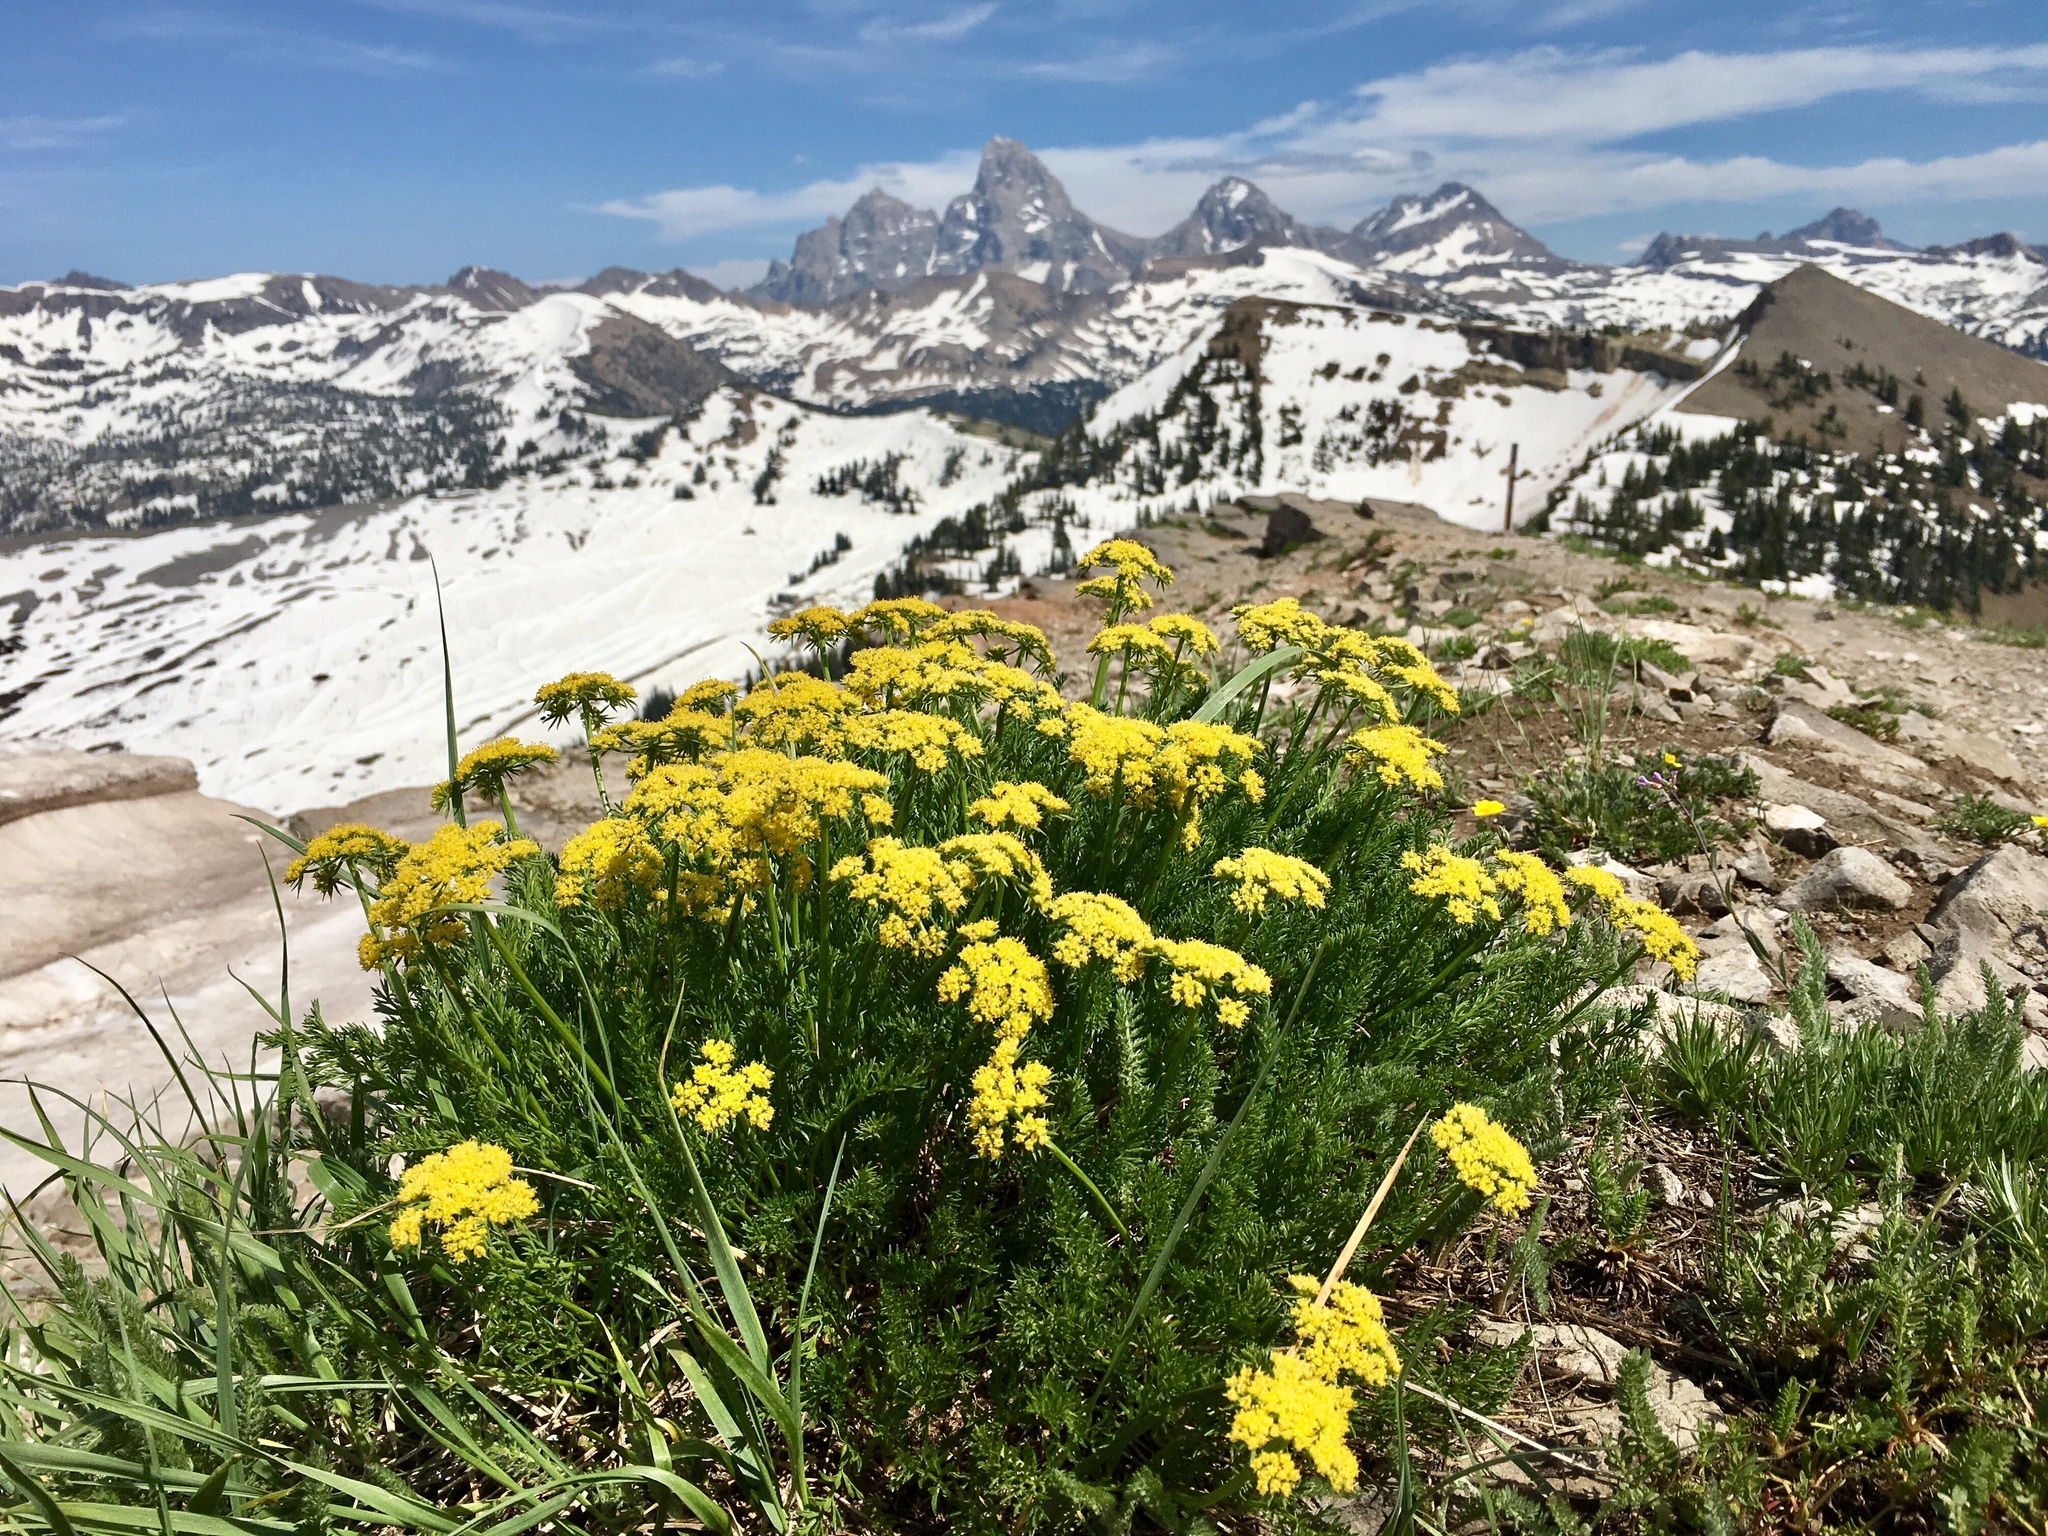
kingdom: Plantae
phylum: Tracheophyta
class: Magnoliopsida
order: Apiales
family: Apiaceae
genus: Pteryxia
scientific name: Pteryxia hendersonii
